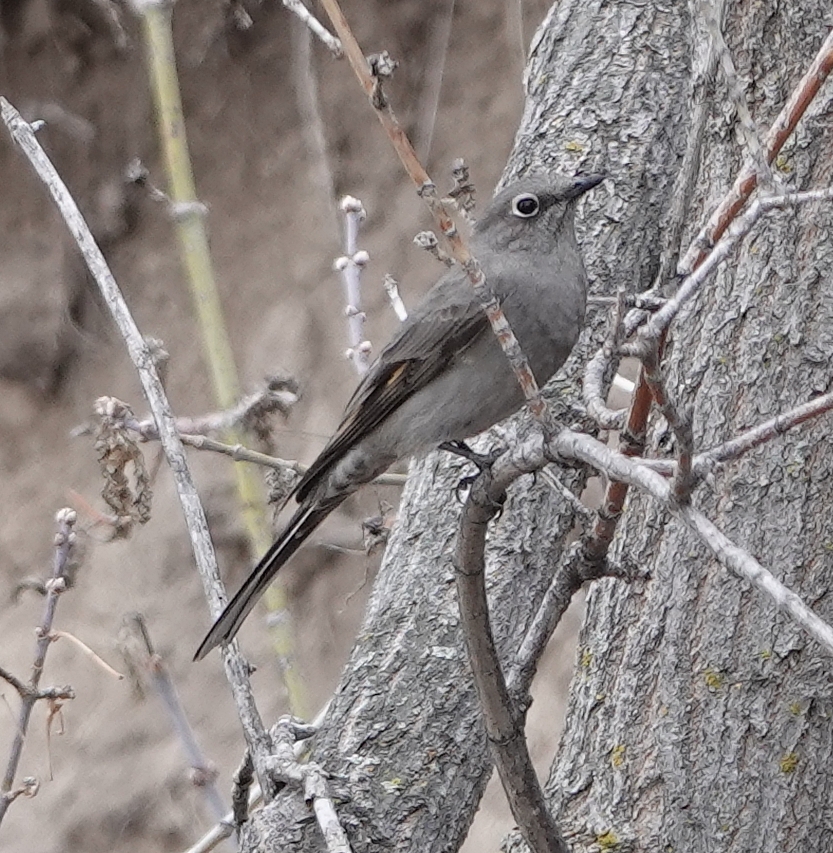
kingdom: Animalia
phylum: Chordata
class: Aves
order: Passeriformes
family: Turdidae
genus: Myadestes
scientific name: Myadestes townsendi
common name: Townsend's solitaire
